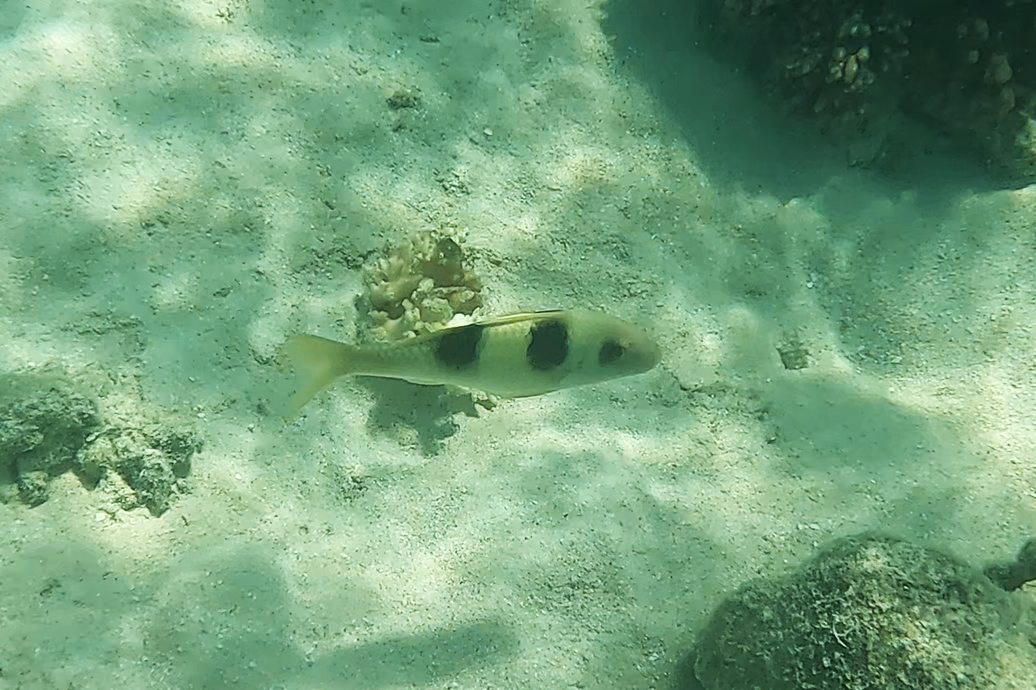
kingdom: Animalia
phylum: Chordata
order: Perciformes
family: Mullidae
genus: Parupeneus
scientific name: Parupeneus crassilabris
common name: Doublebar goatfish
